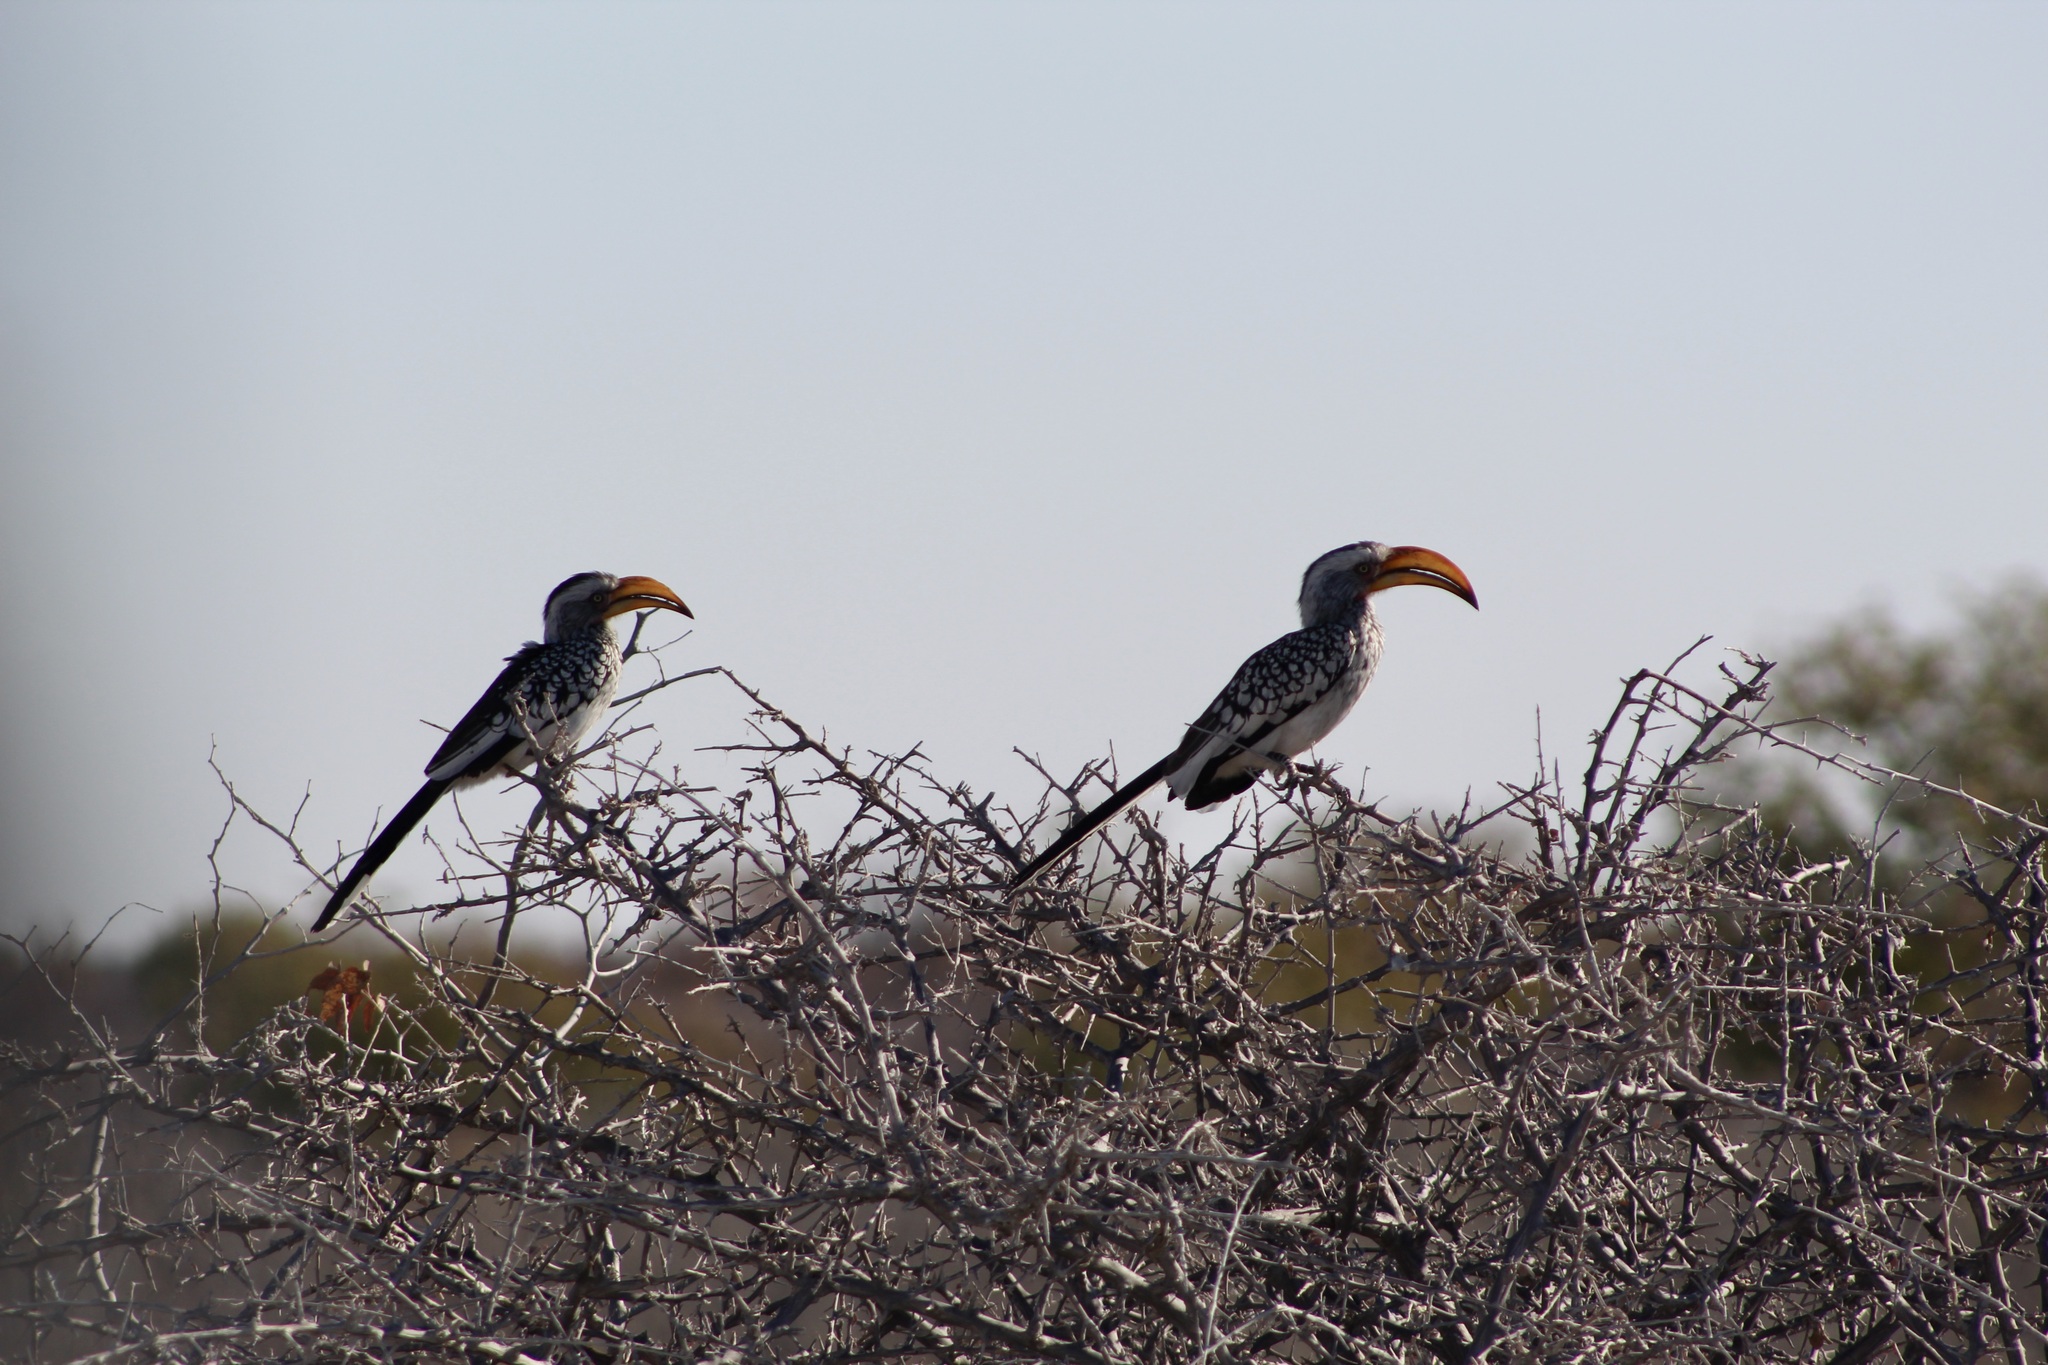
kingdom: Animalia
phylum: Chordata
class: Aves
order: Bucerotiformes
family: Bucerotidae
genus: Tockus
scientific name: Tockus leucomelas
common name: Southern yellow-billed hornbill
